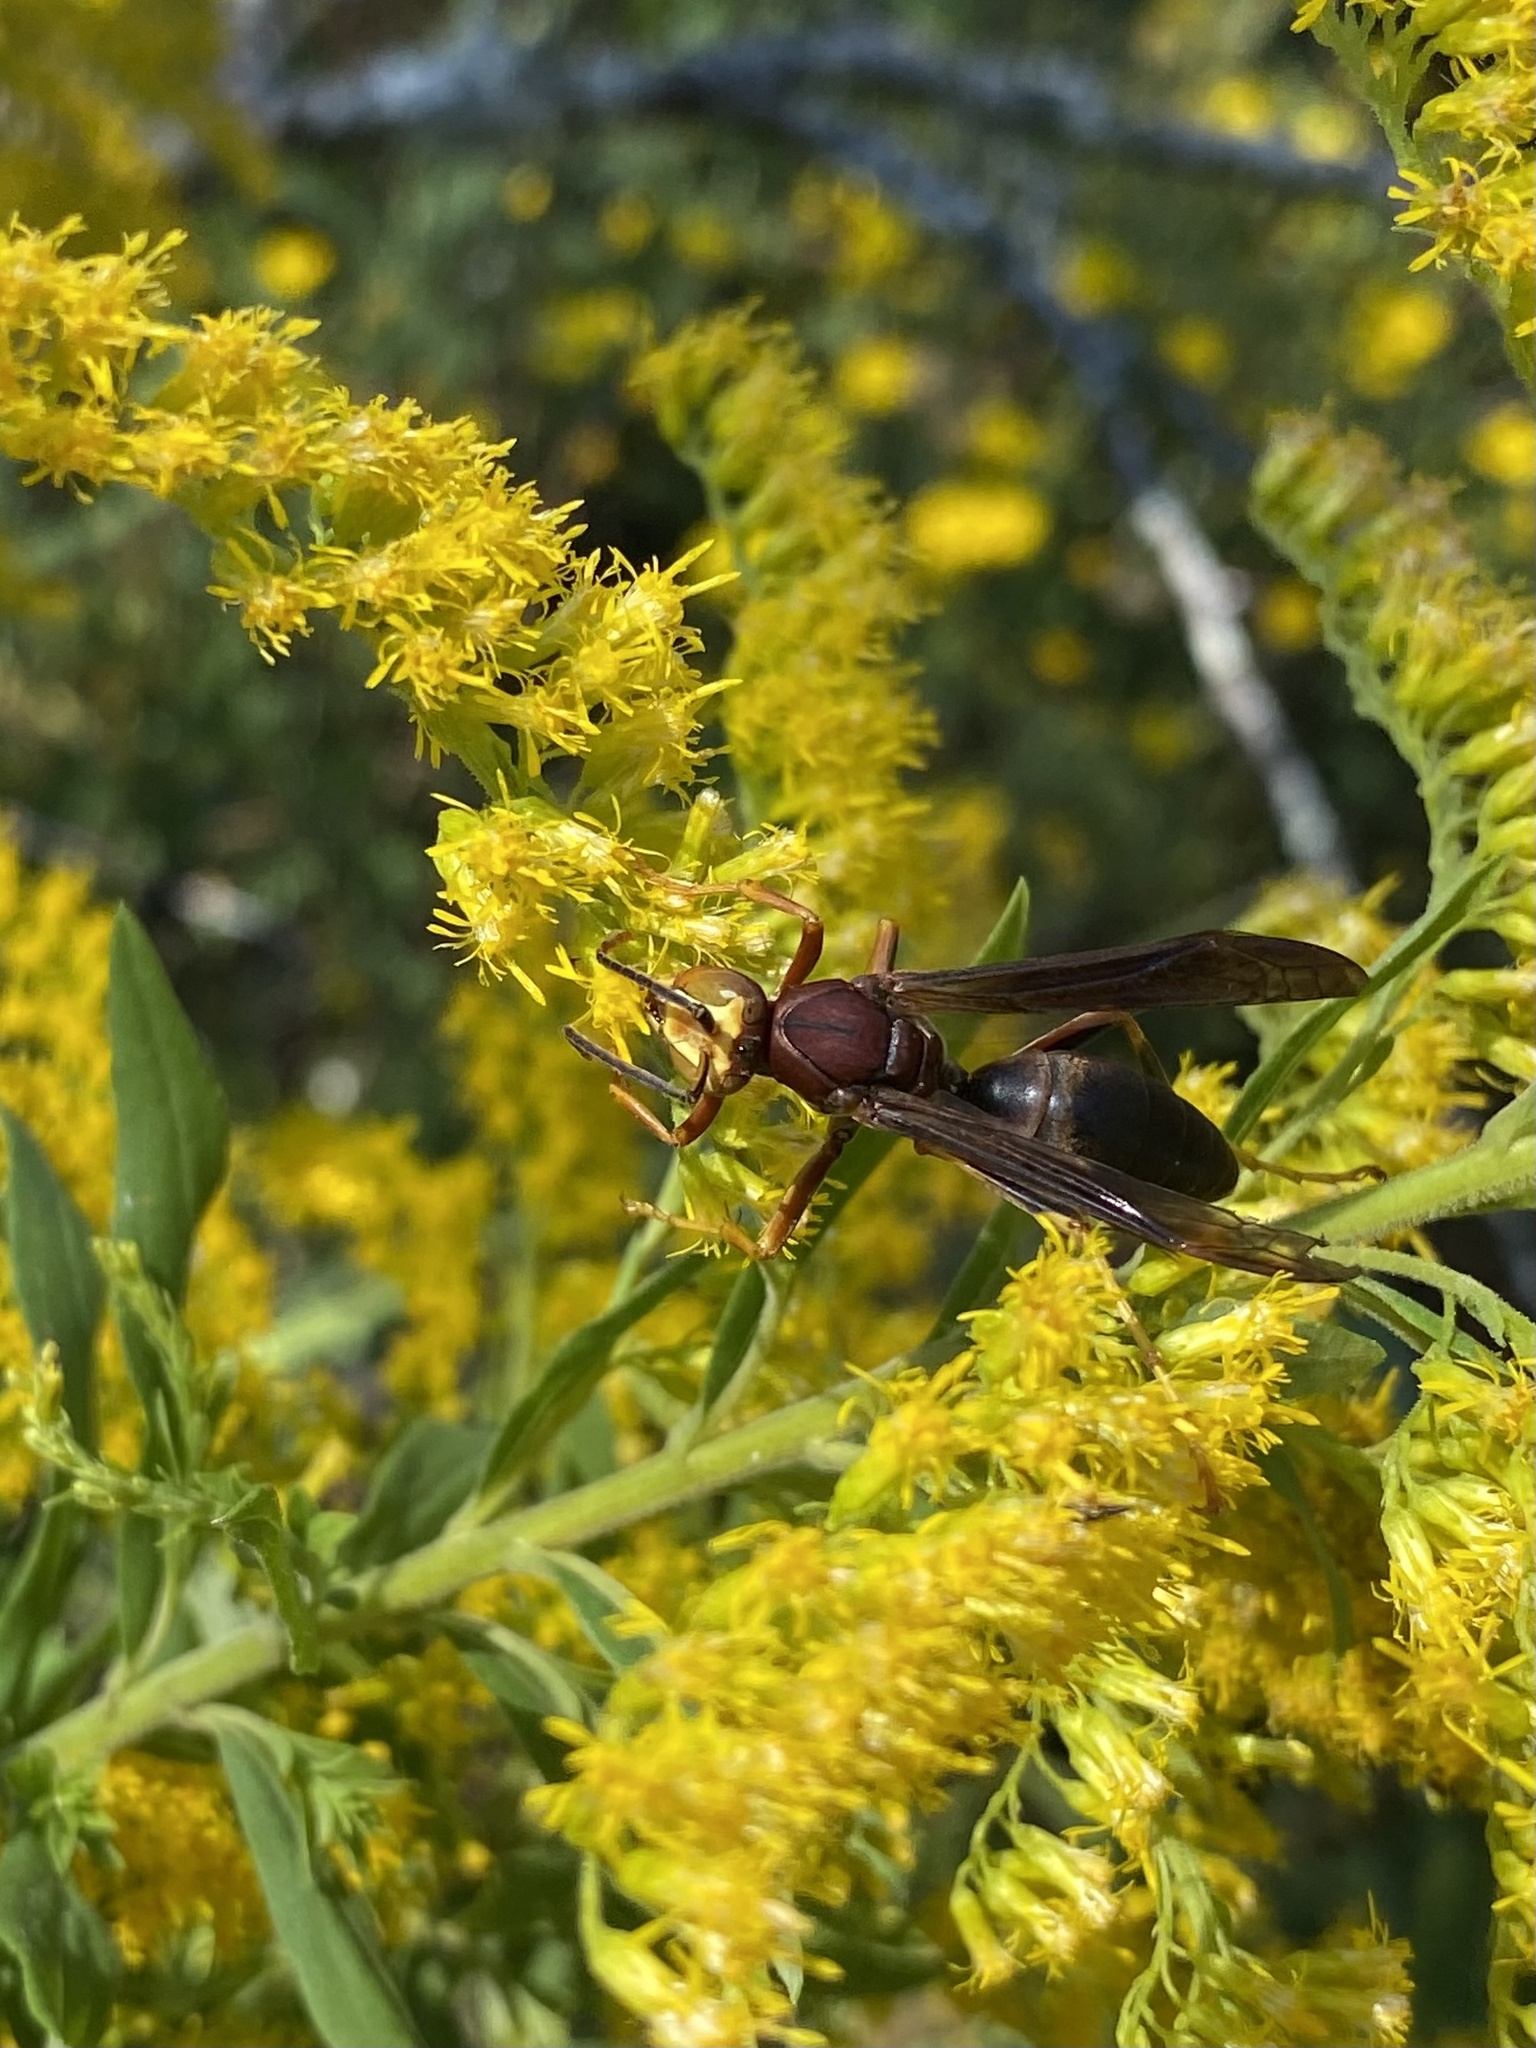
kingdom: Animalia
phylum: Arthropoda
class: Insecta
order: Hymenoptera
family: Eumenidae
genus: Polistes
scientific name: Polistes metricus
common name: Metric paper wasp
